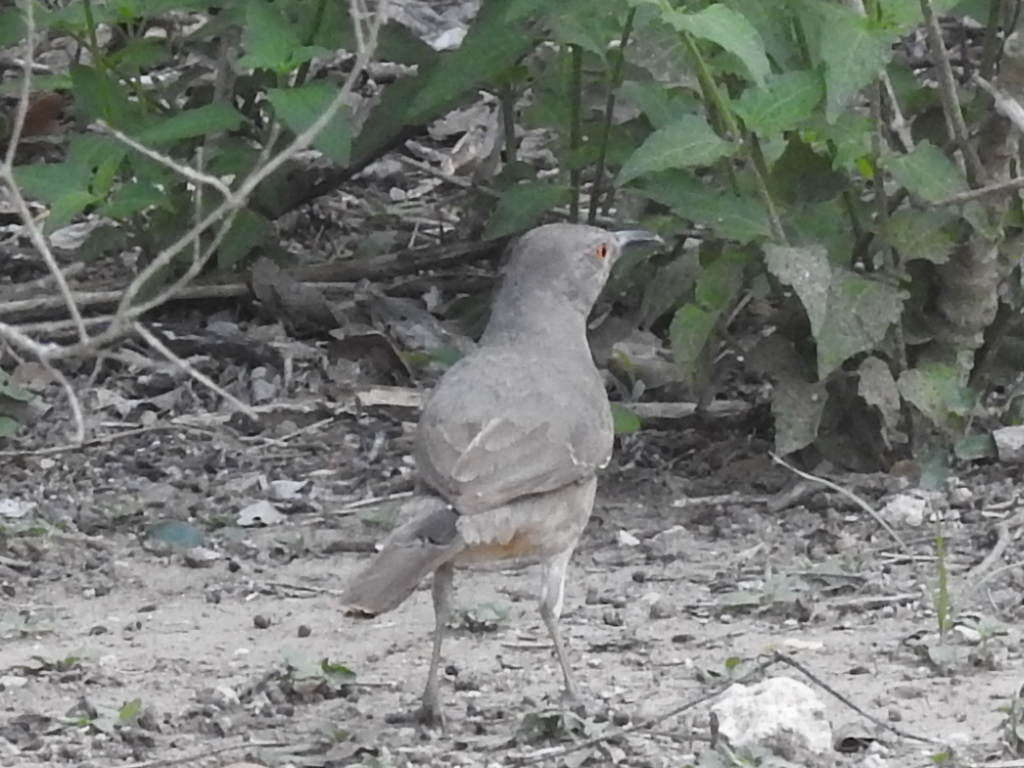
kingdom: Animalia
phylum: Chordata
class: Aves
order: Passeriformes
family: Mimidae
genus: Toxostoma
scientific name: Toxostoma curvirostre
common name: Curve-billed thrasher
